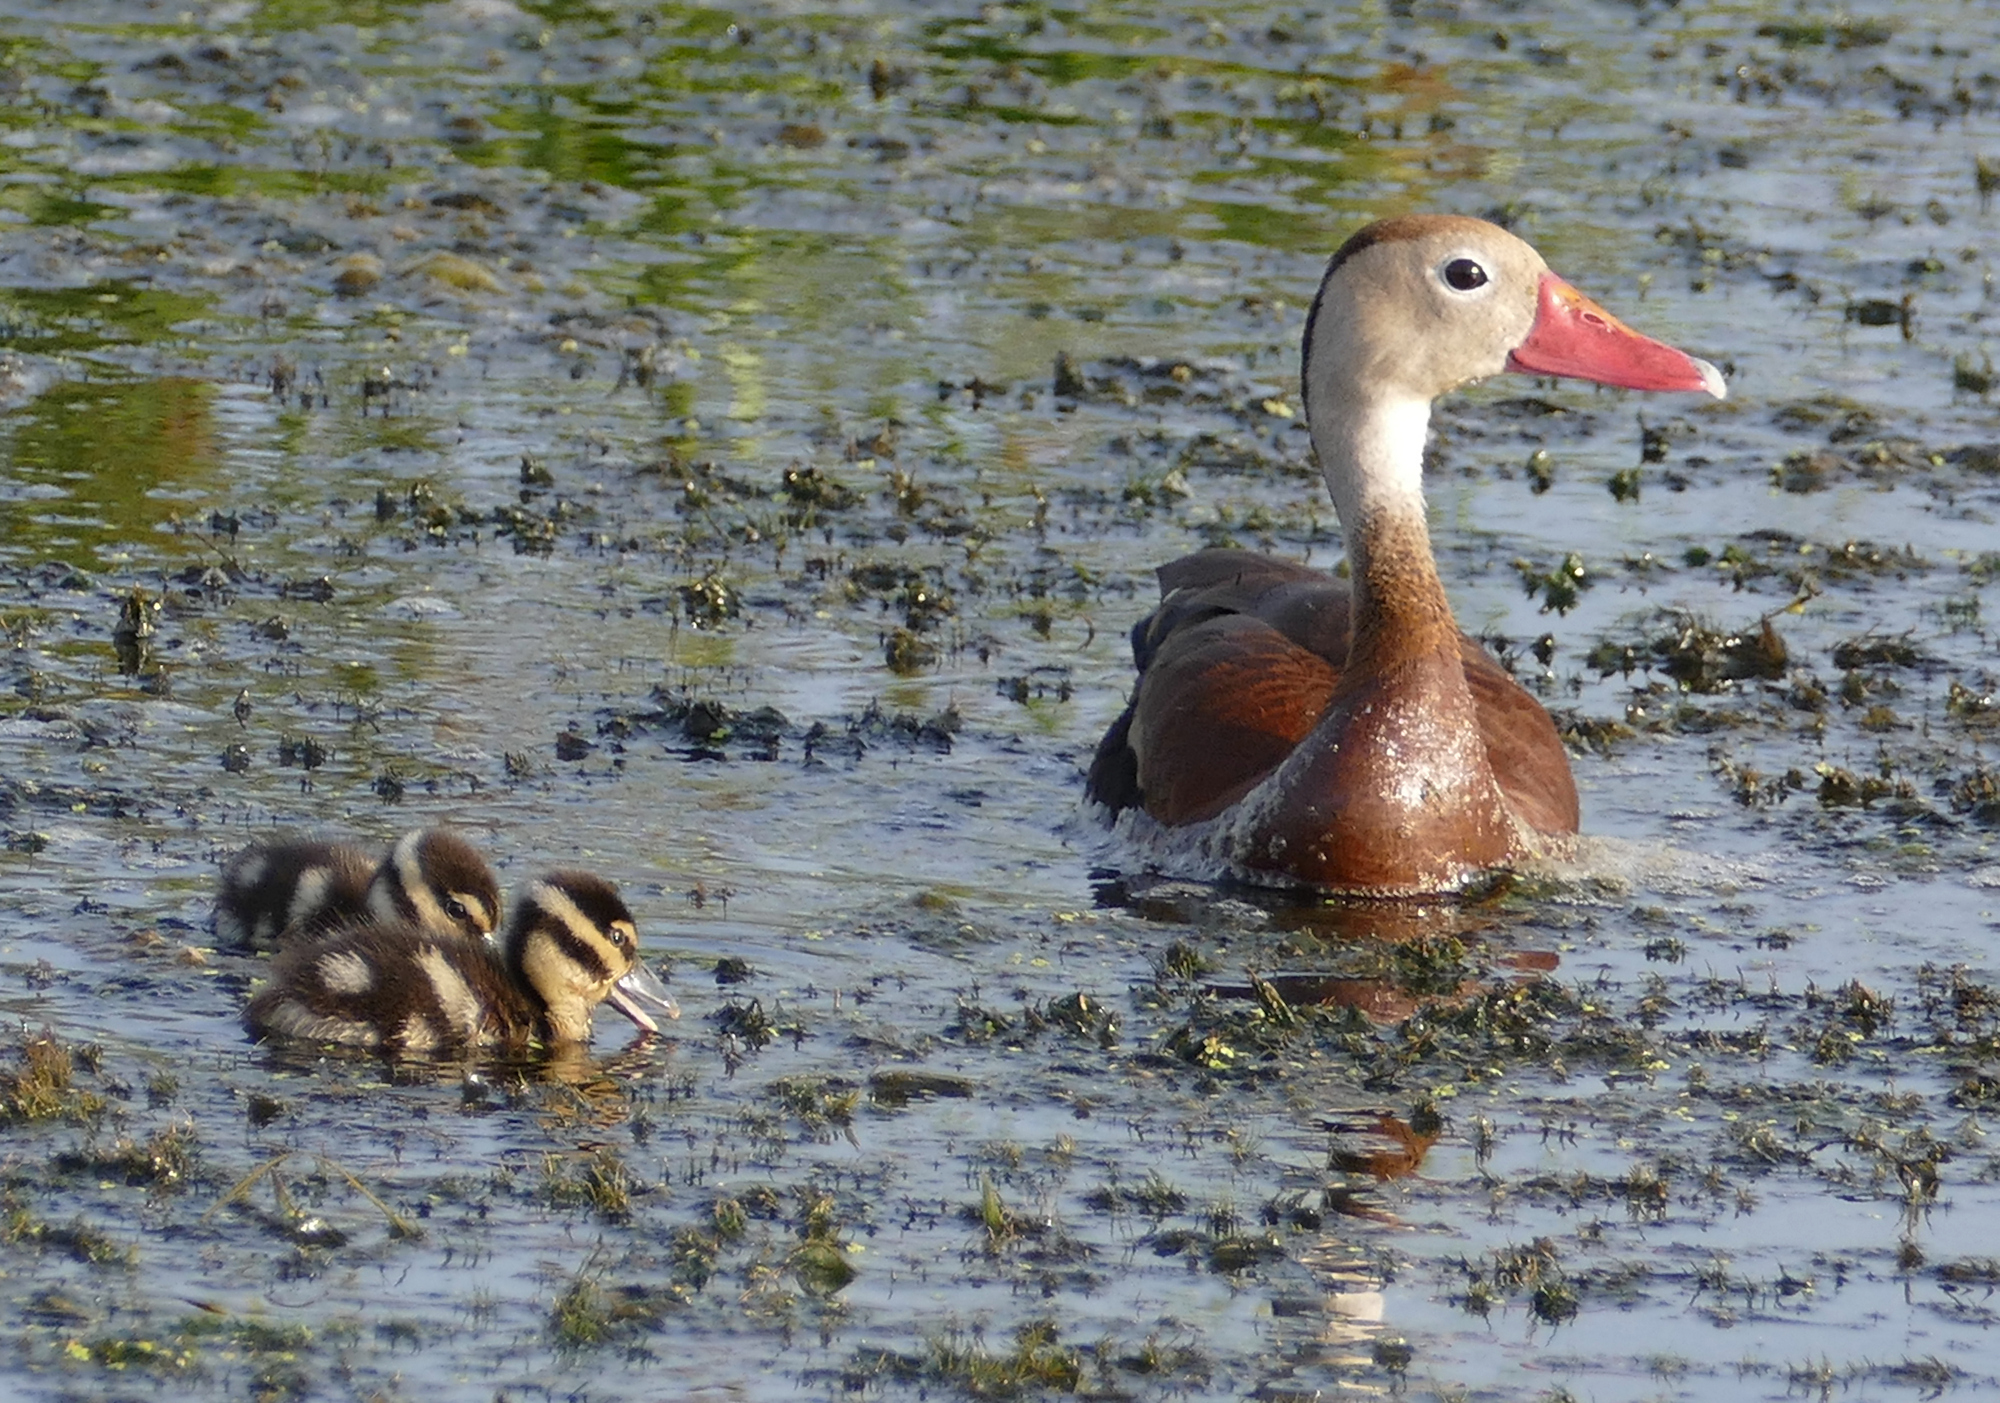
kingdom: Animalia
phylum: Chordata
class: Aves
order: Anseriformes
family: Anatidae
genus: Dendrocygna
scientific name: Dendrocygna autumnalis
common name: Black-bellied whistling duck
